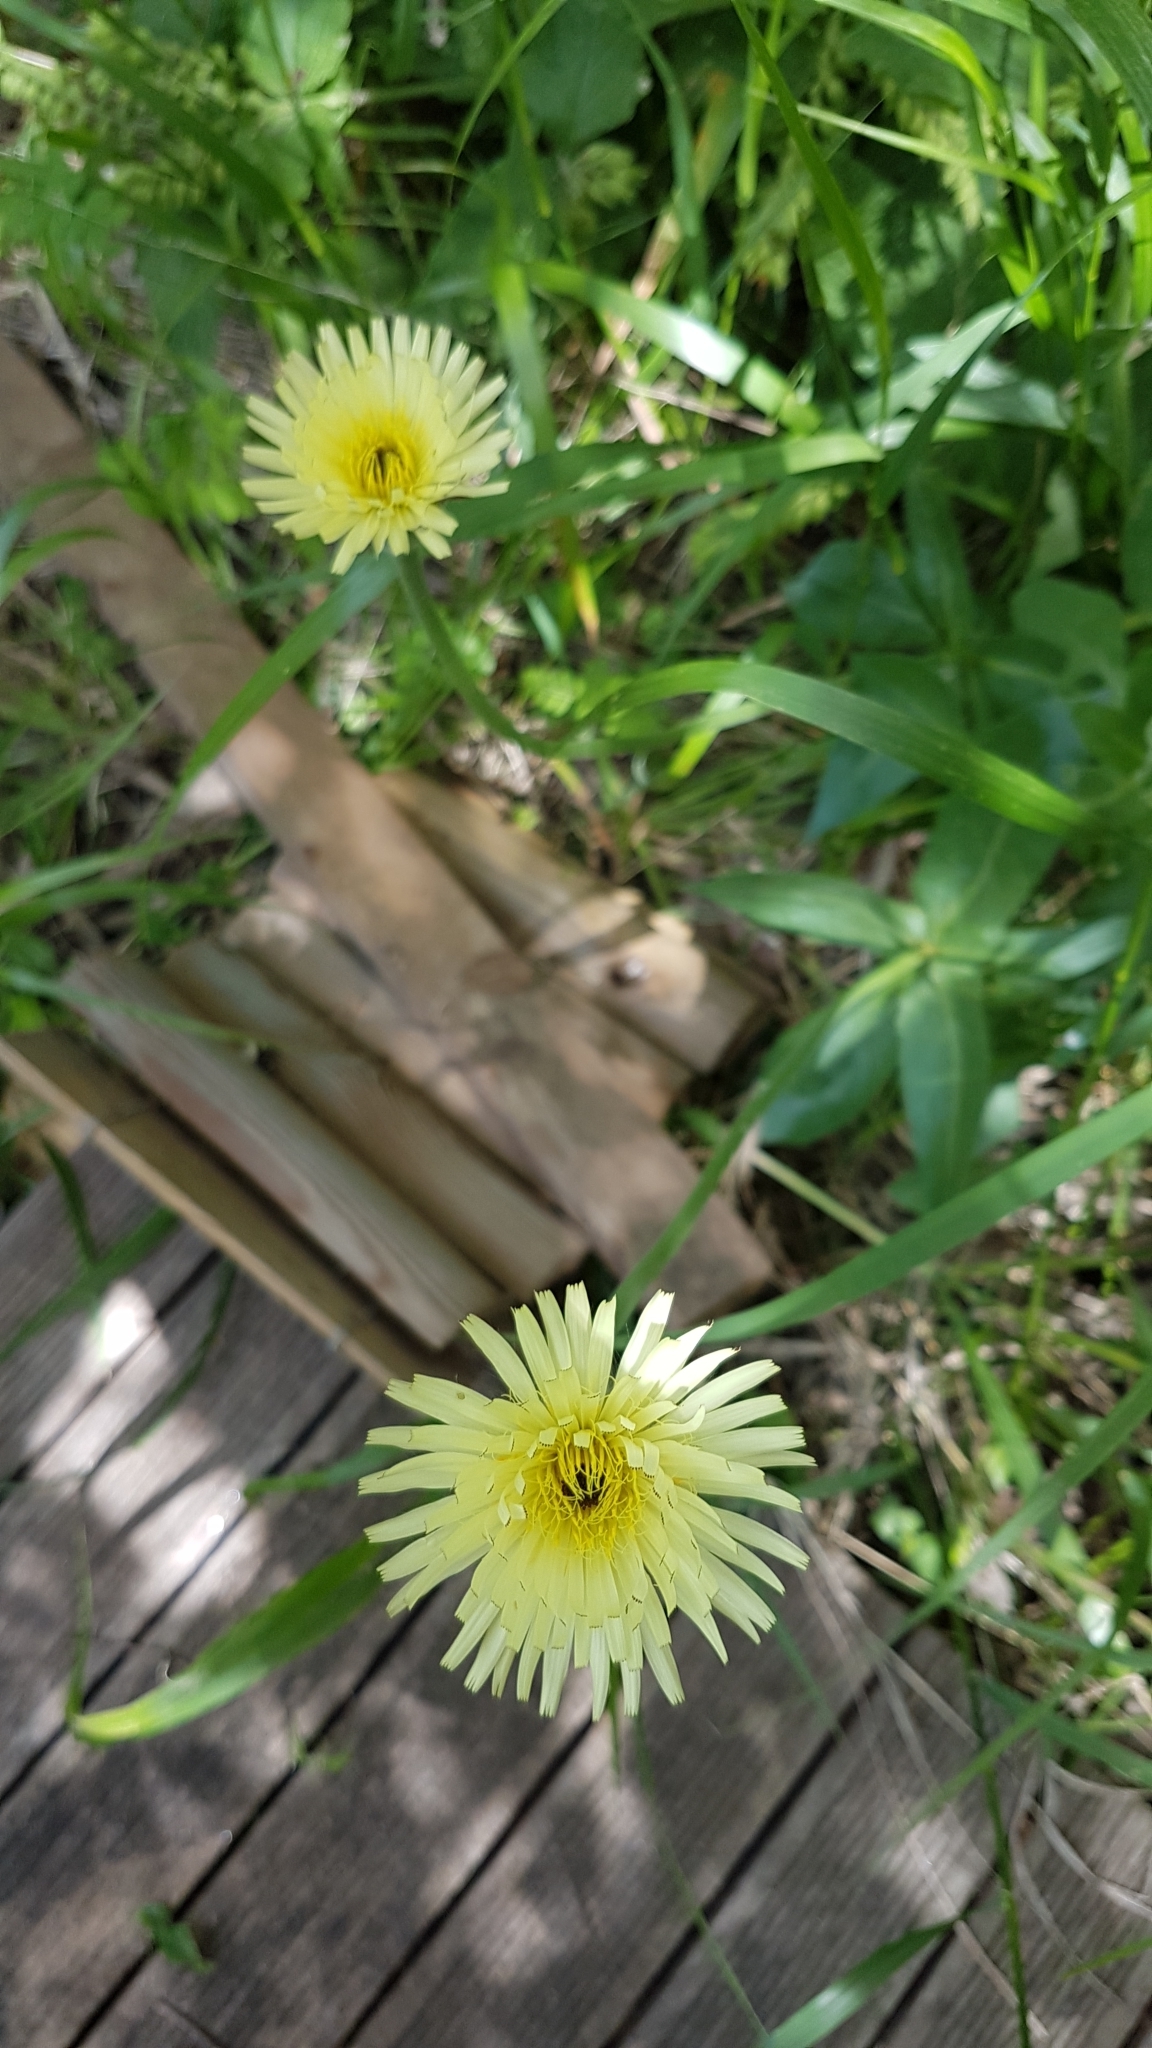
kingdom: Plantae
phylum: Tracheophyta
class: Magnoliopsida
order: Asterales
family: Asteraceae
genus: Urospermum
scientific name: Urospermum dalechampii
